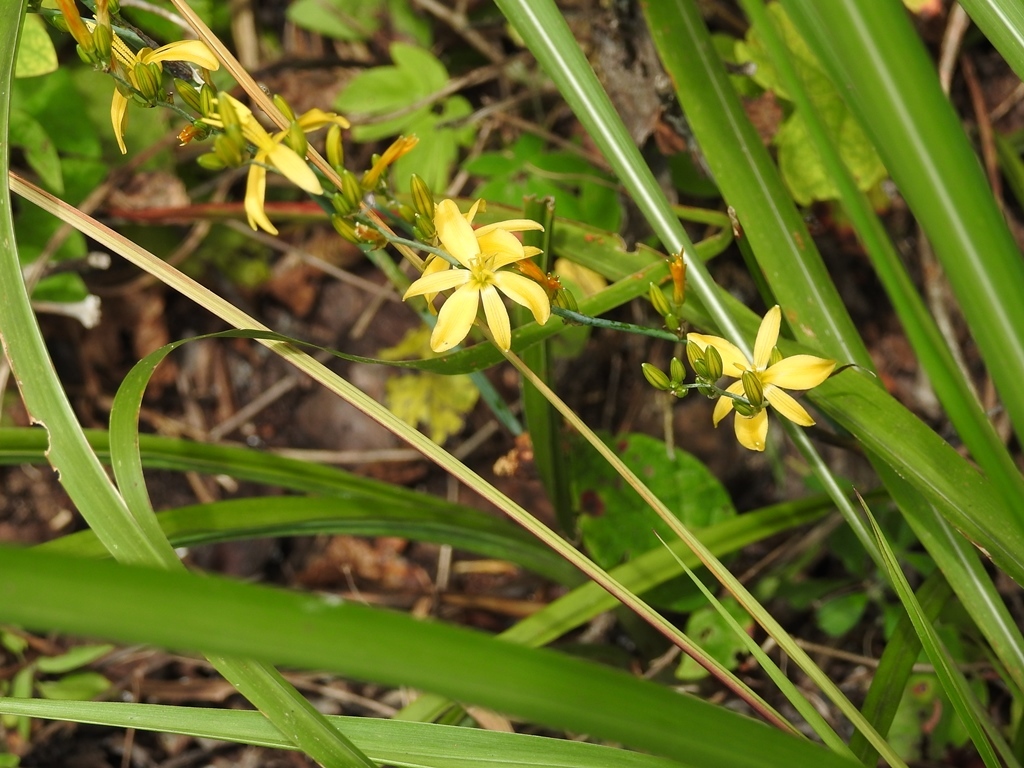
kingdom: Plantae
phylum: Tracheophyta
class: Liliopsida
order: Asparagales
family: Asparagaceae
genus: Echeandia
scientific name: Echeandia breedlovei
